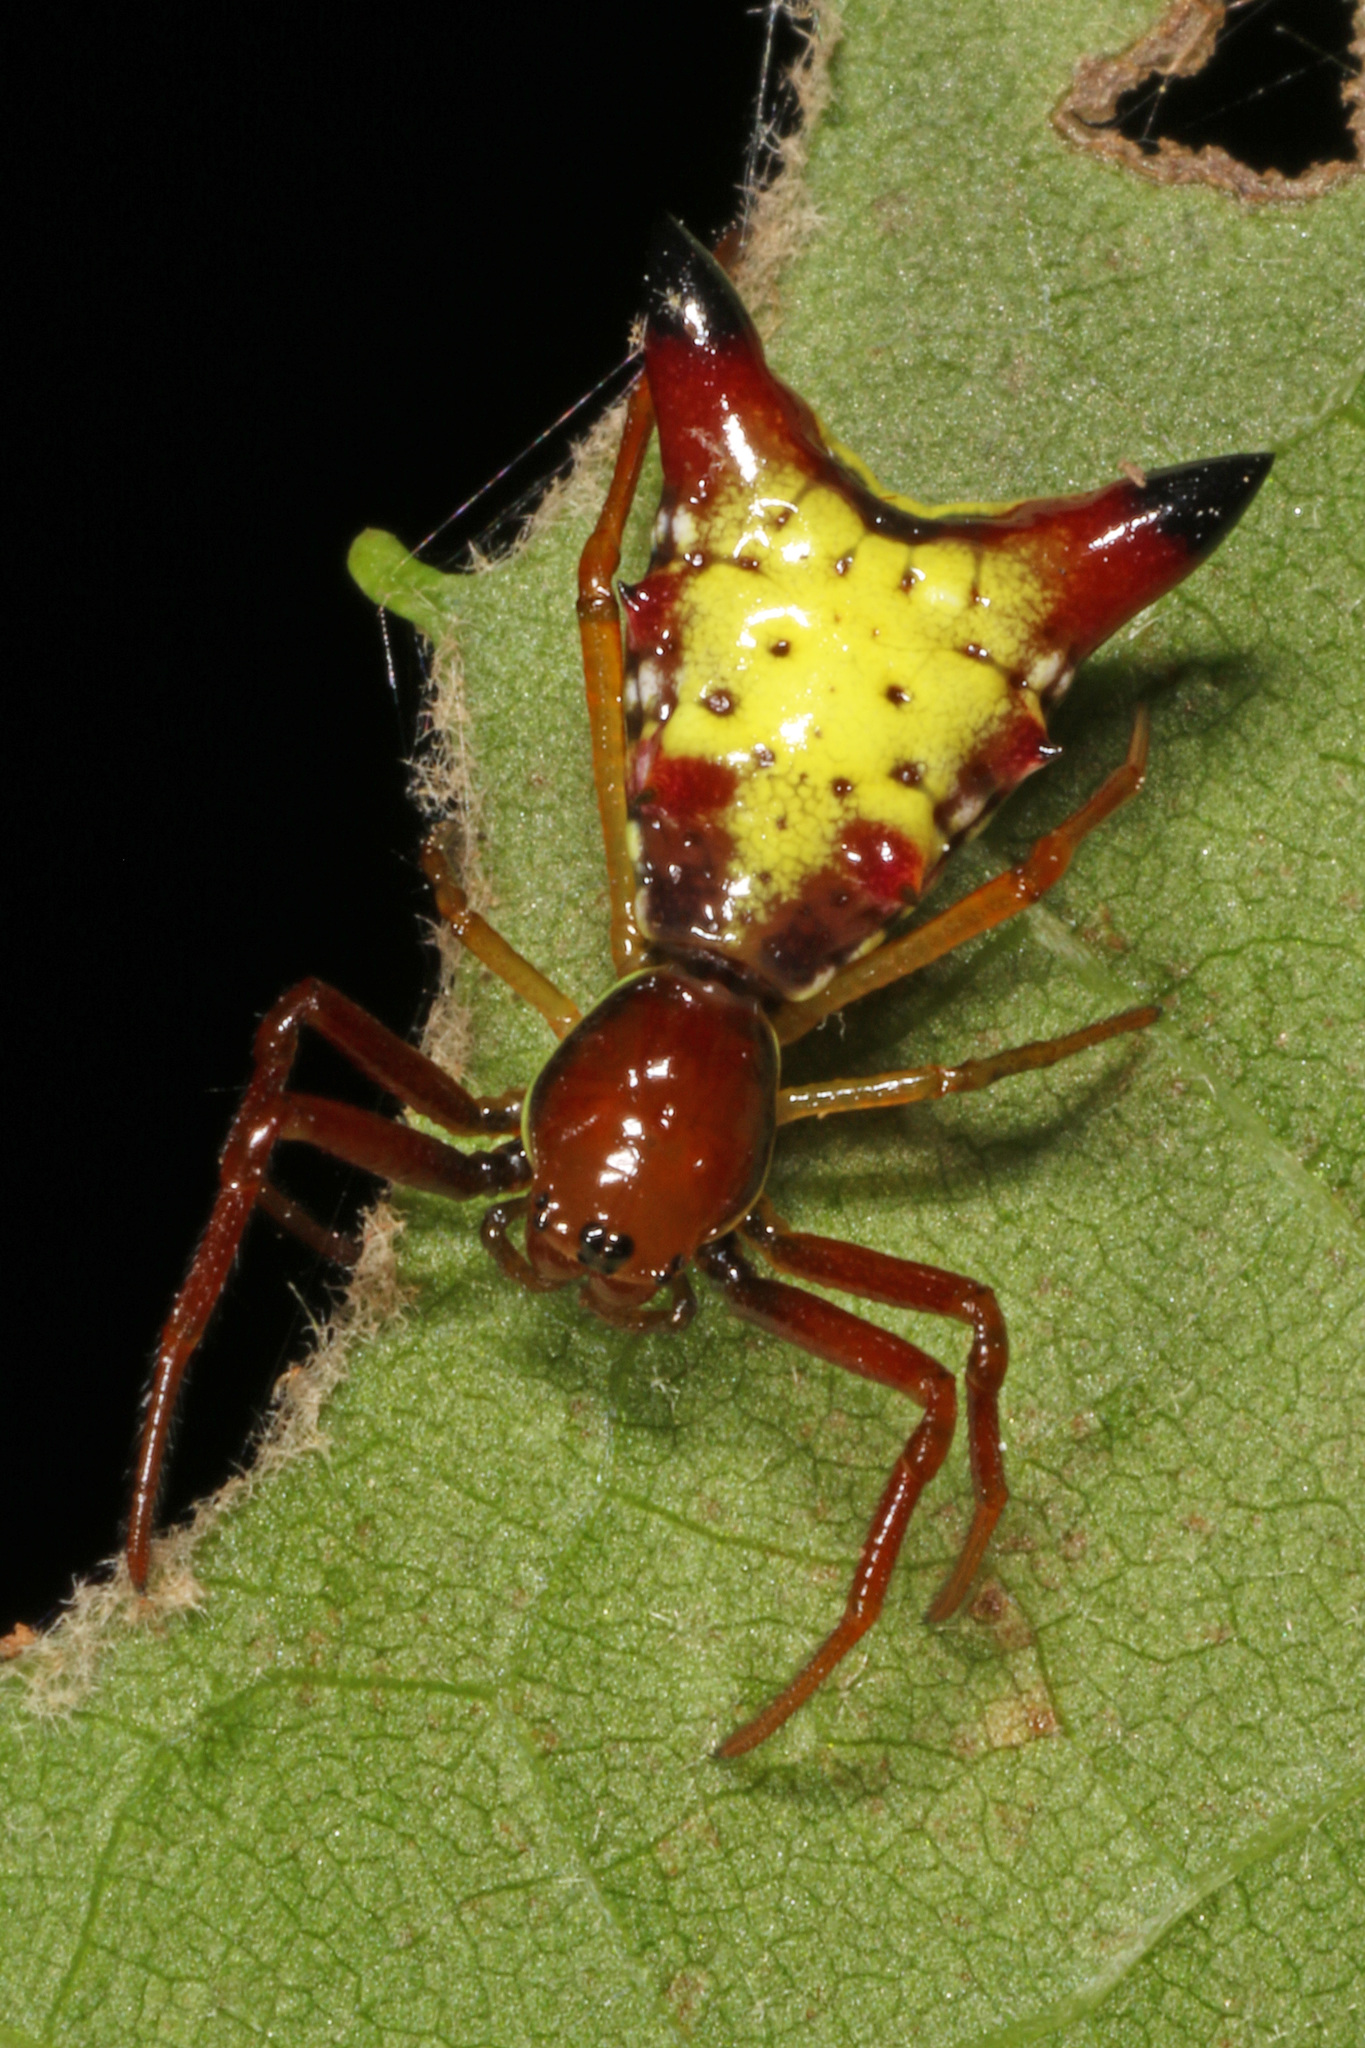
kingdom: Animalia
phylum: Arthropoda
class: Arachnida
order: Araneae
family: Araneidae
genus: Micrathena
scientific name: Micrathena sagittata
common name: Orb weavers
